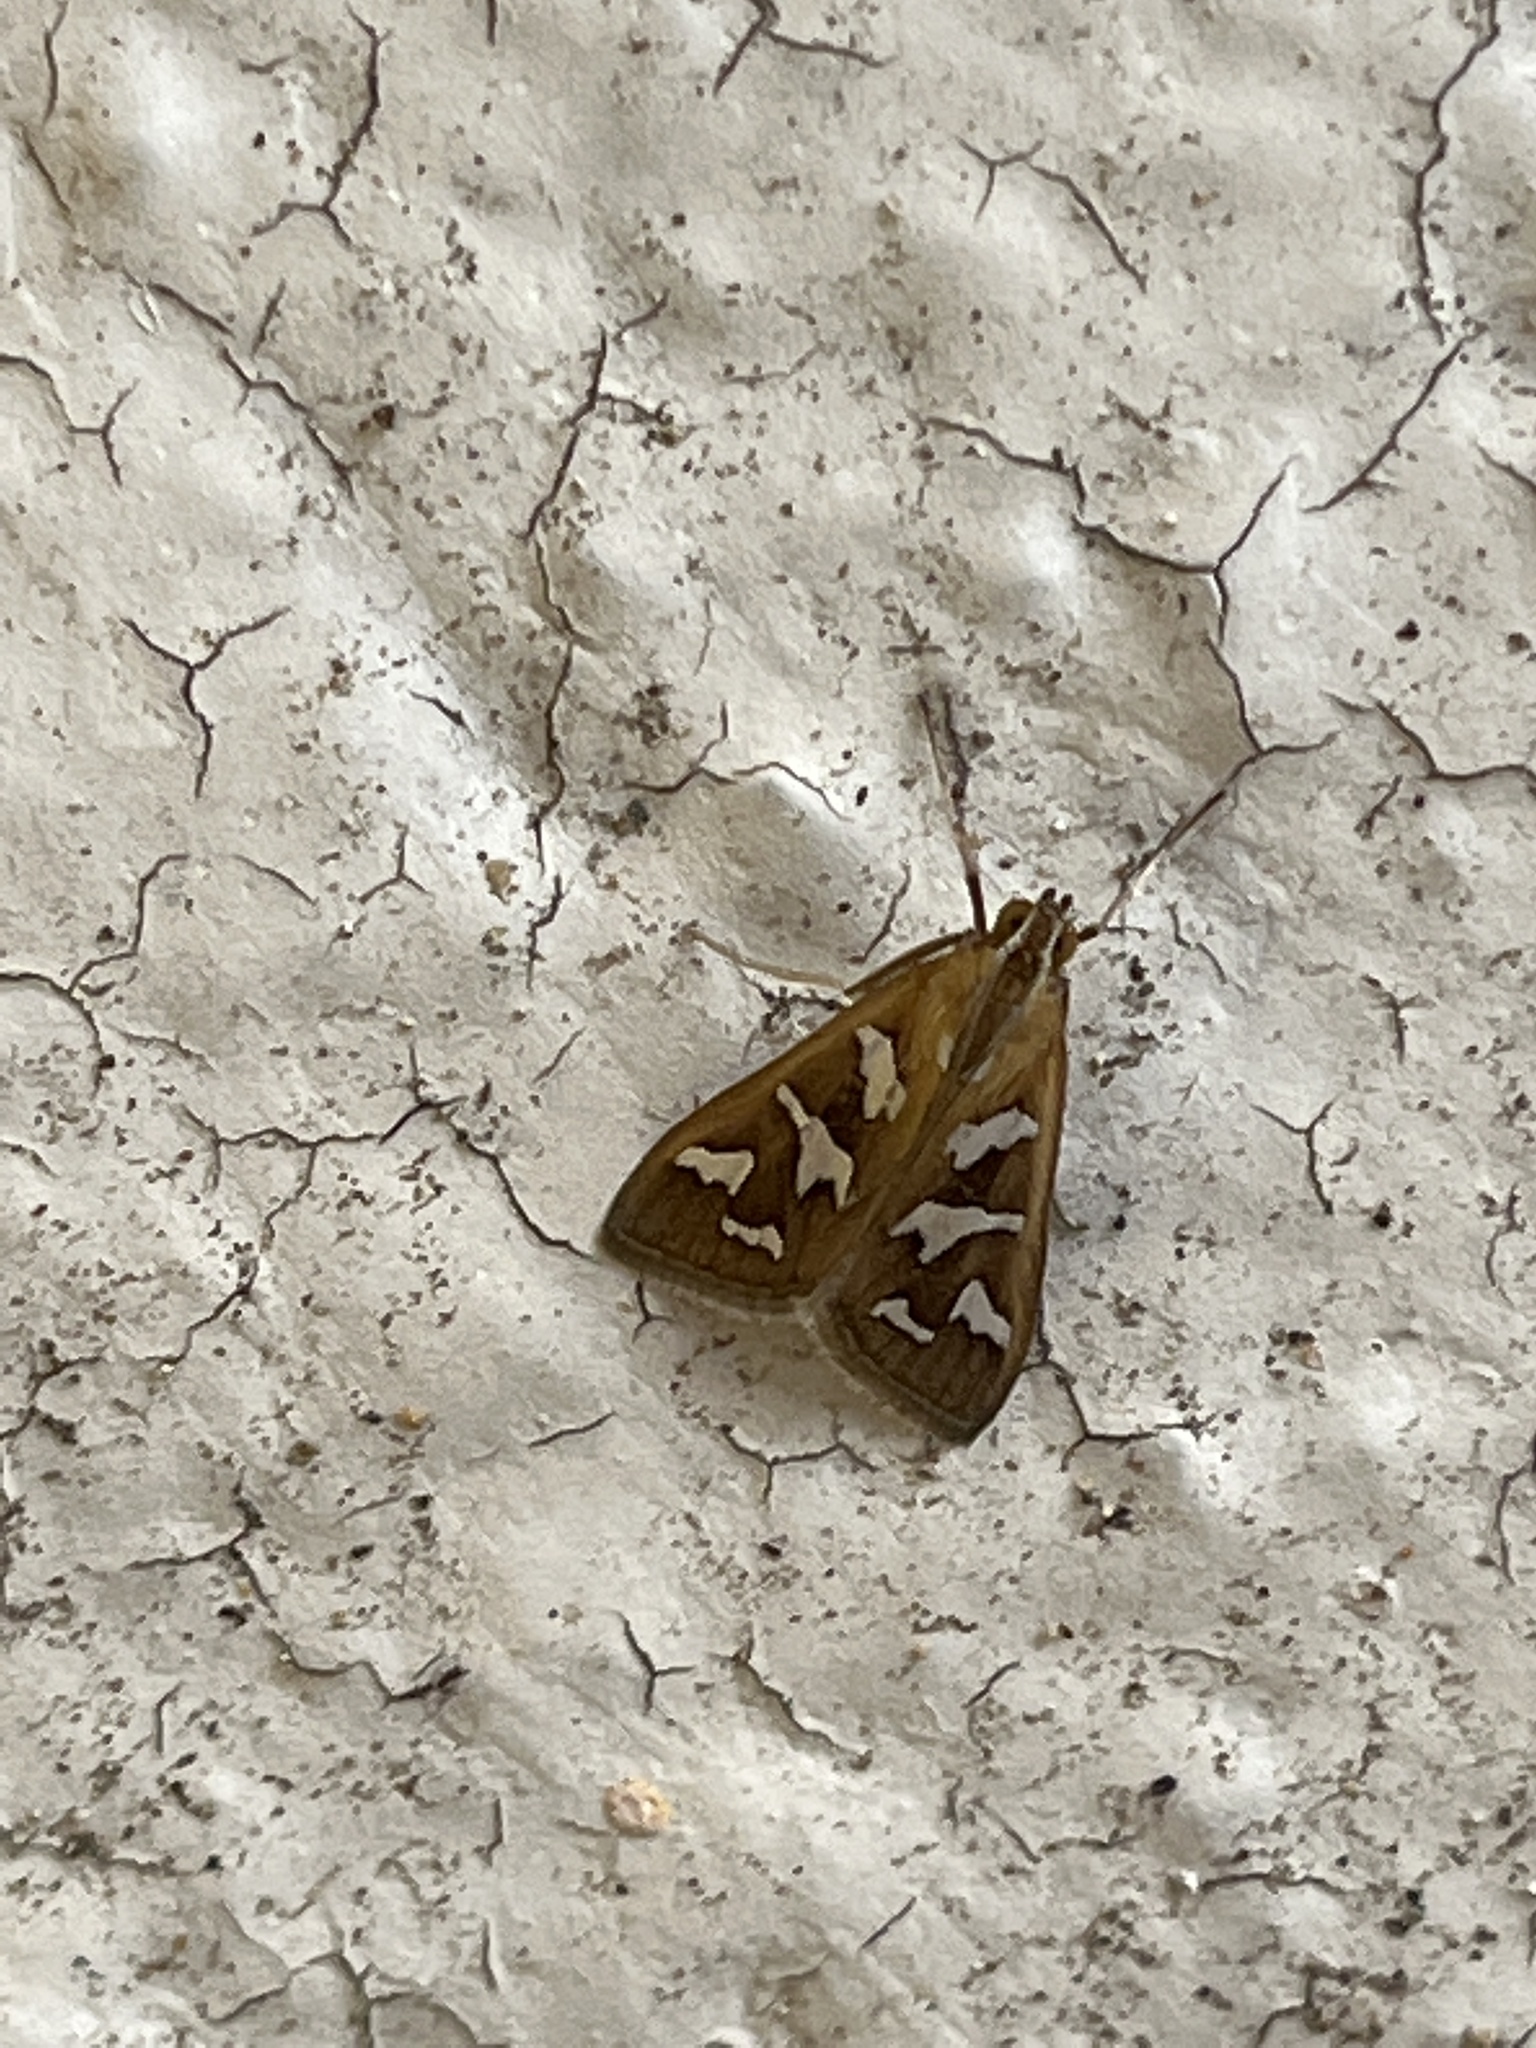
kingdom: Animalia
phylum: Arthropoda
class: Insecta
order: Lepidoptera
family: Crambidae
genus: Diastictis
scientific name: Diastictis fracturalis
